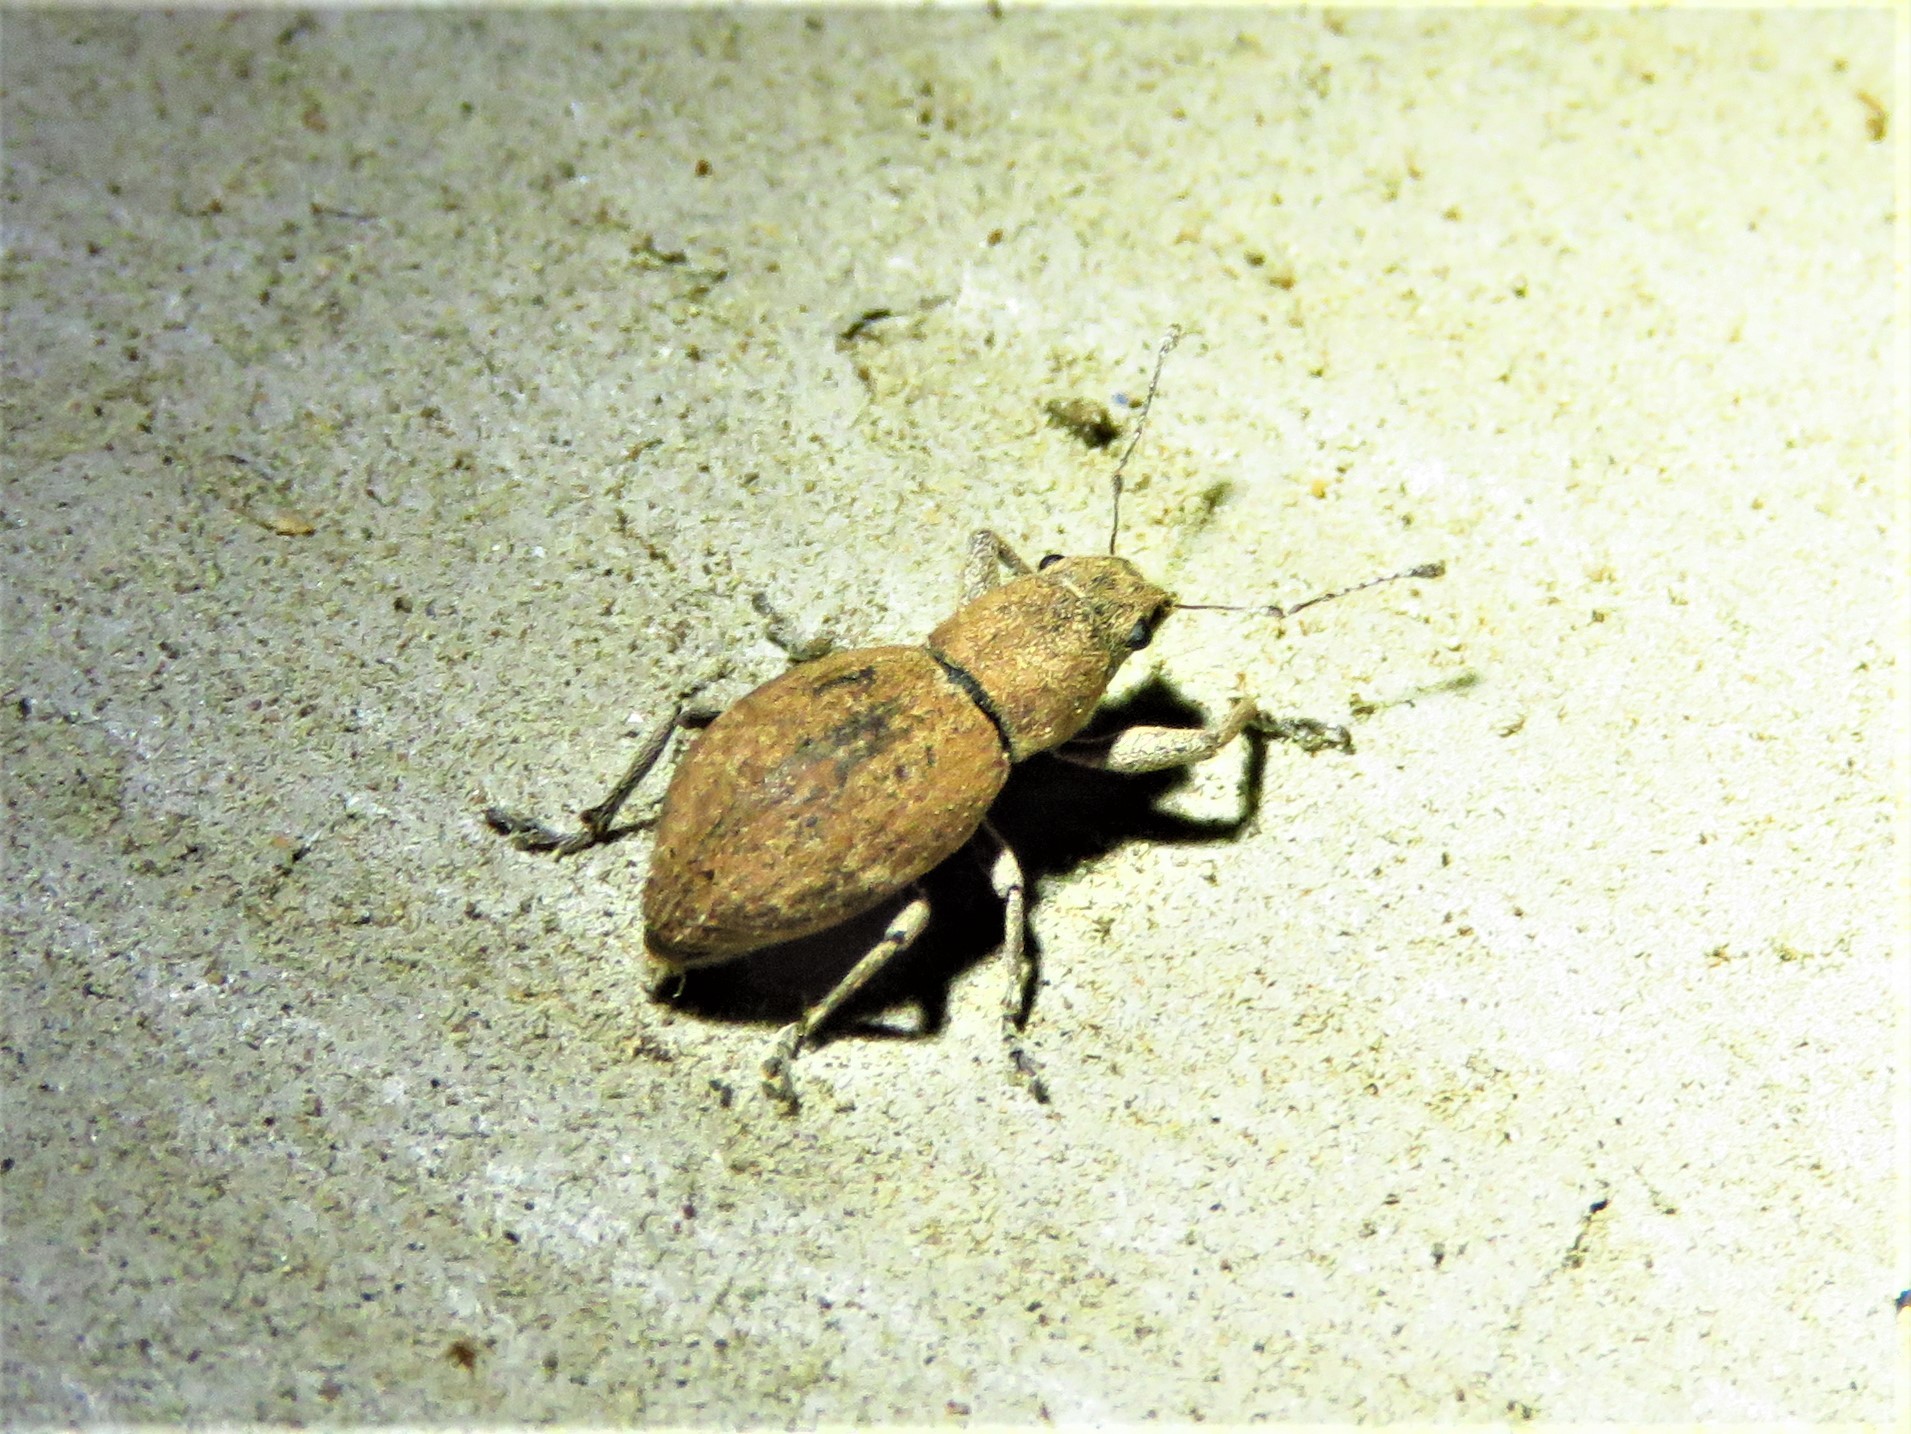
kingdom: Animalia
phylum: Arthropoda
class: Insecta
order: Coleoptera
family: Curculionidae
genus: Naupactus
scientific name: Naupactus cervinus
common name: Fuller rose beetle
